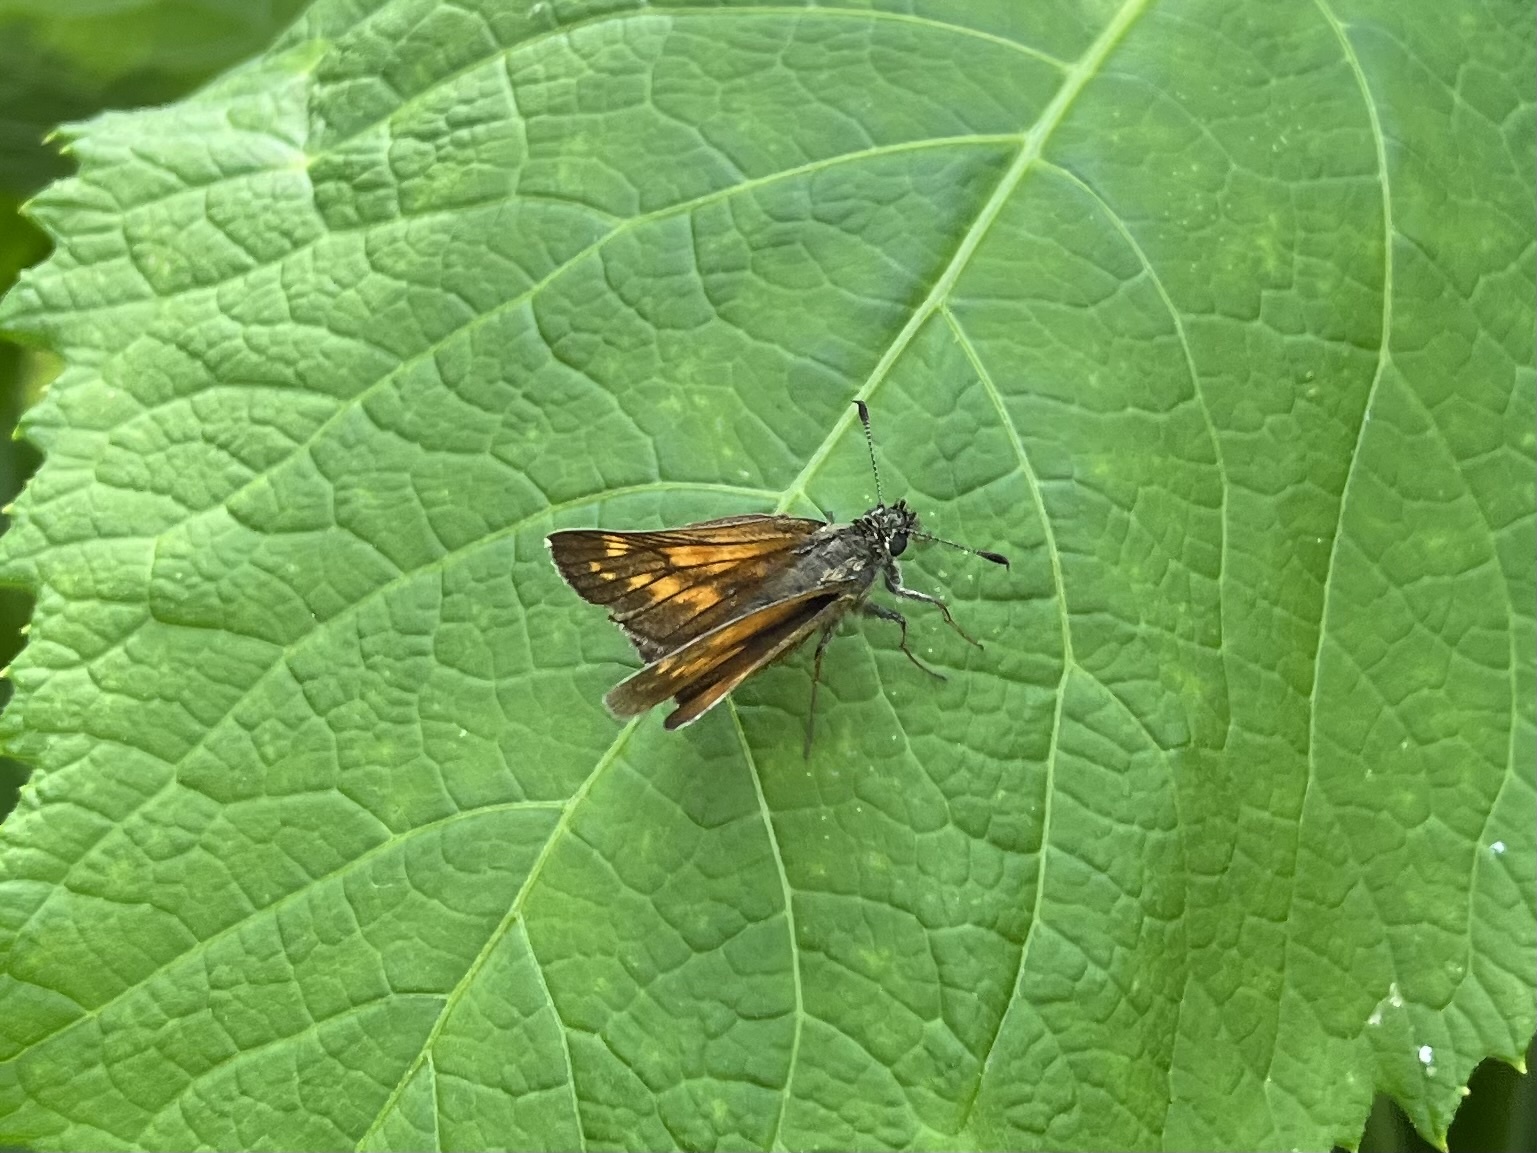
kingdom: Animalia
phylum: Arthropoda
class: Insecta
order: Lepidoptera
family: Hesperiidae
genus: Ochlodes
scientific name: Ochlodes venata
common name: Large skipper
